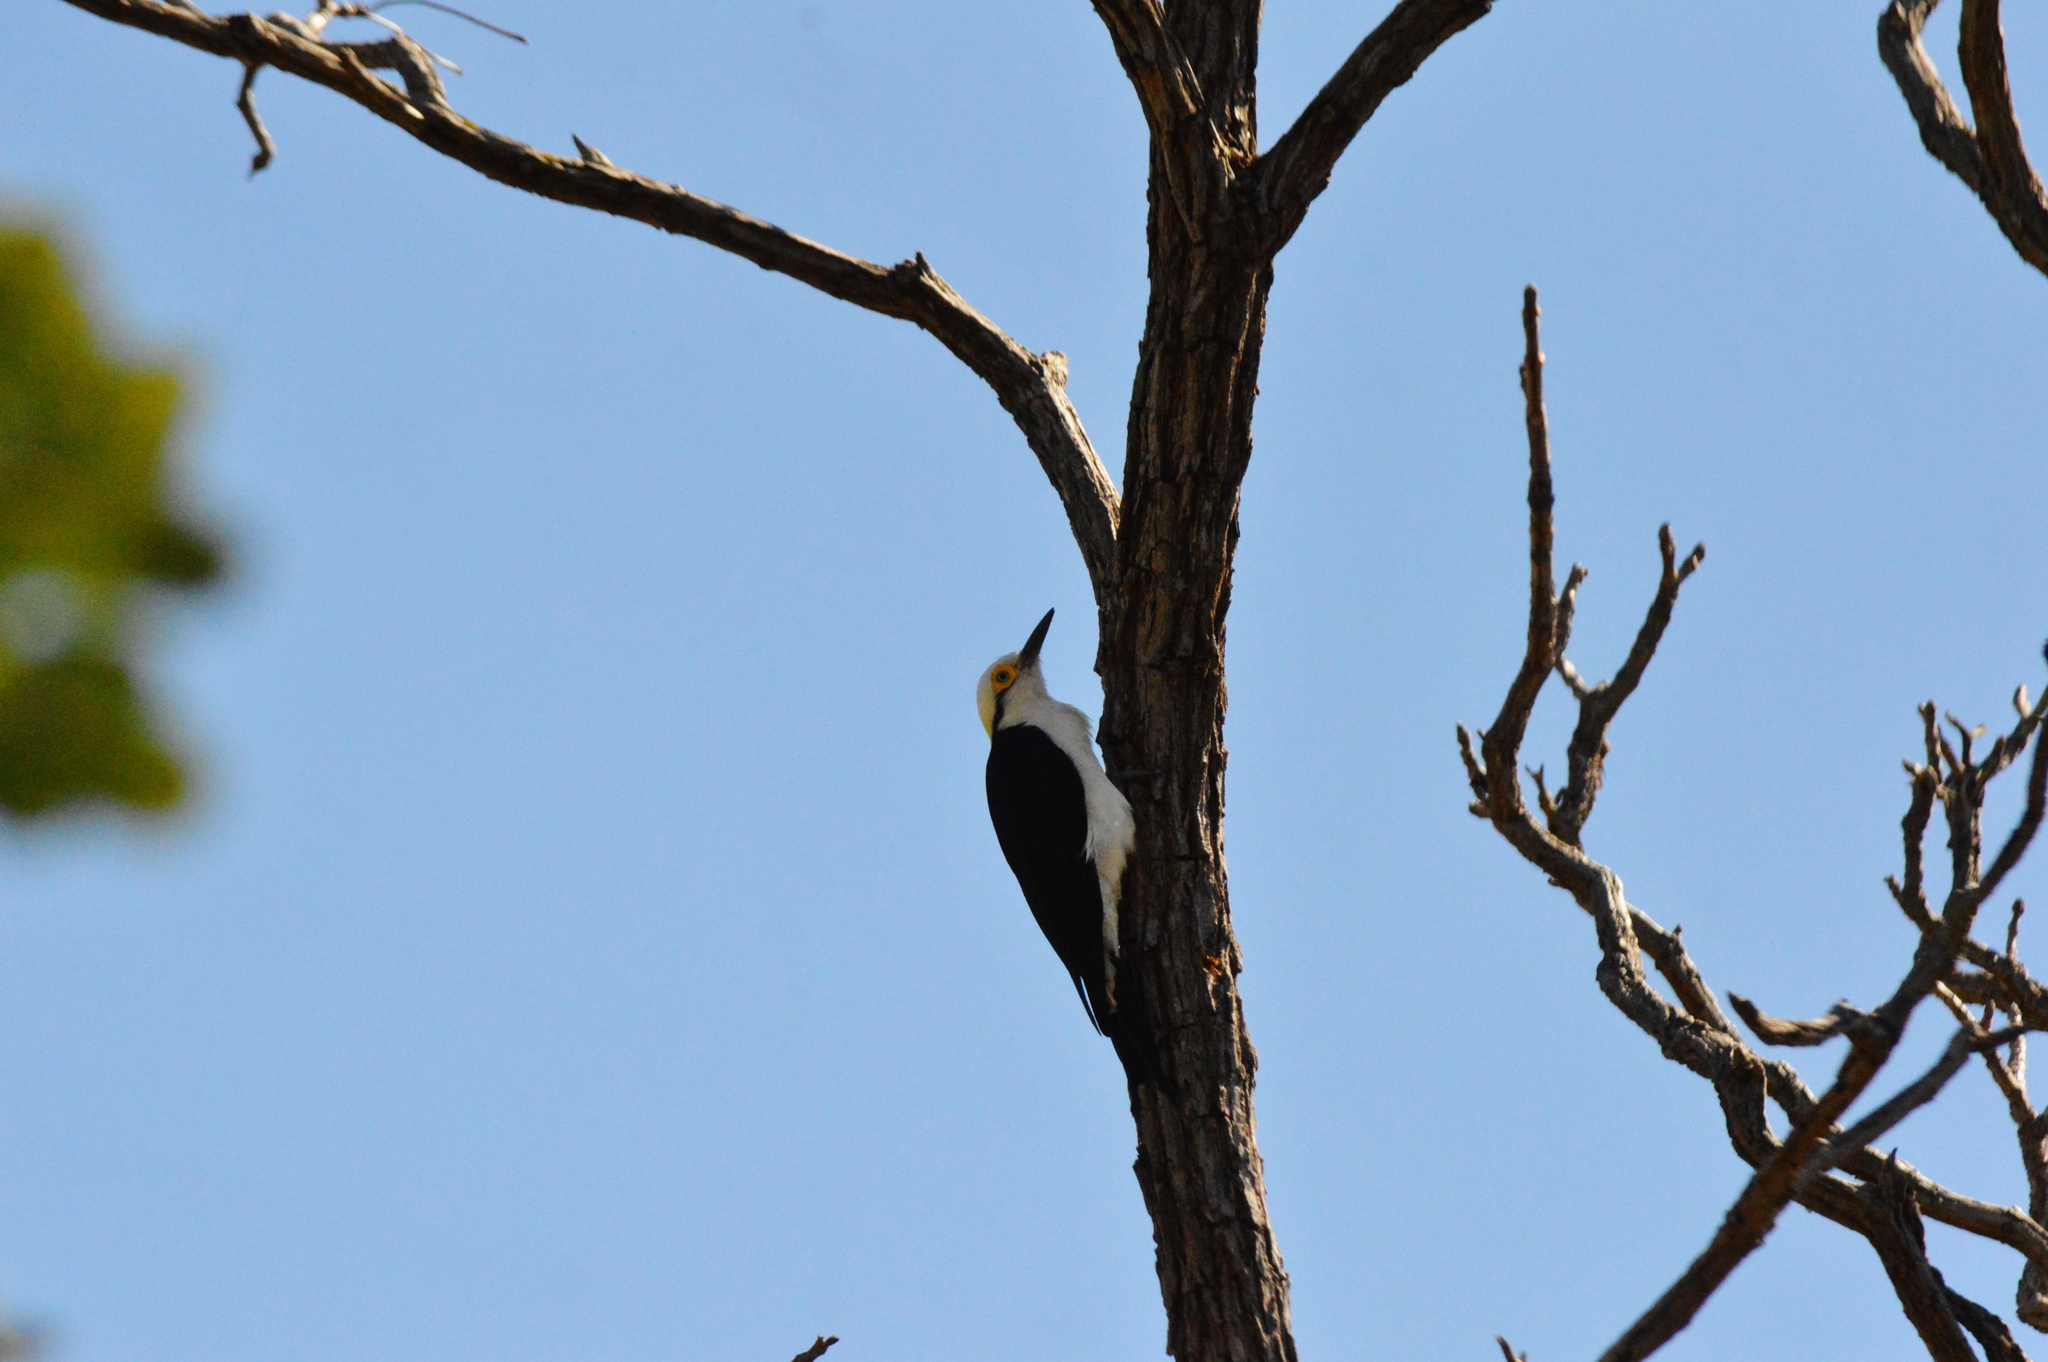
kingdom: Animalia
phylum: Chordata
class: Aves
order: Piciformes
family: Picidae
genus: Melanerpes
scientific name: Melanerpes candidus
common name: White woodpecker
